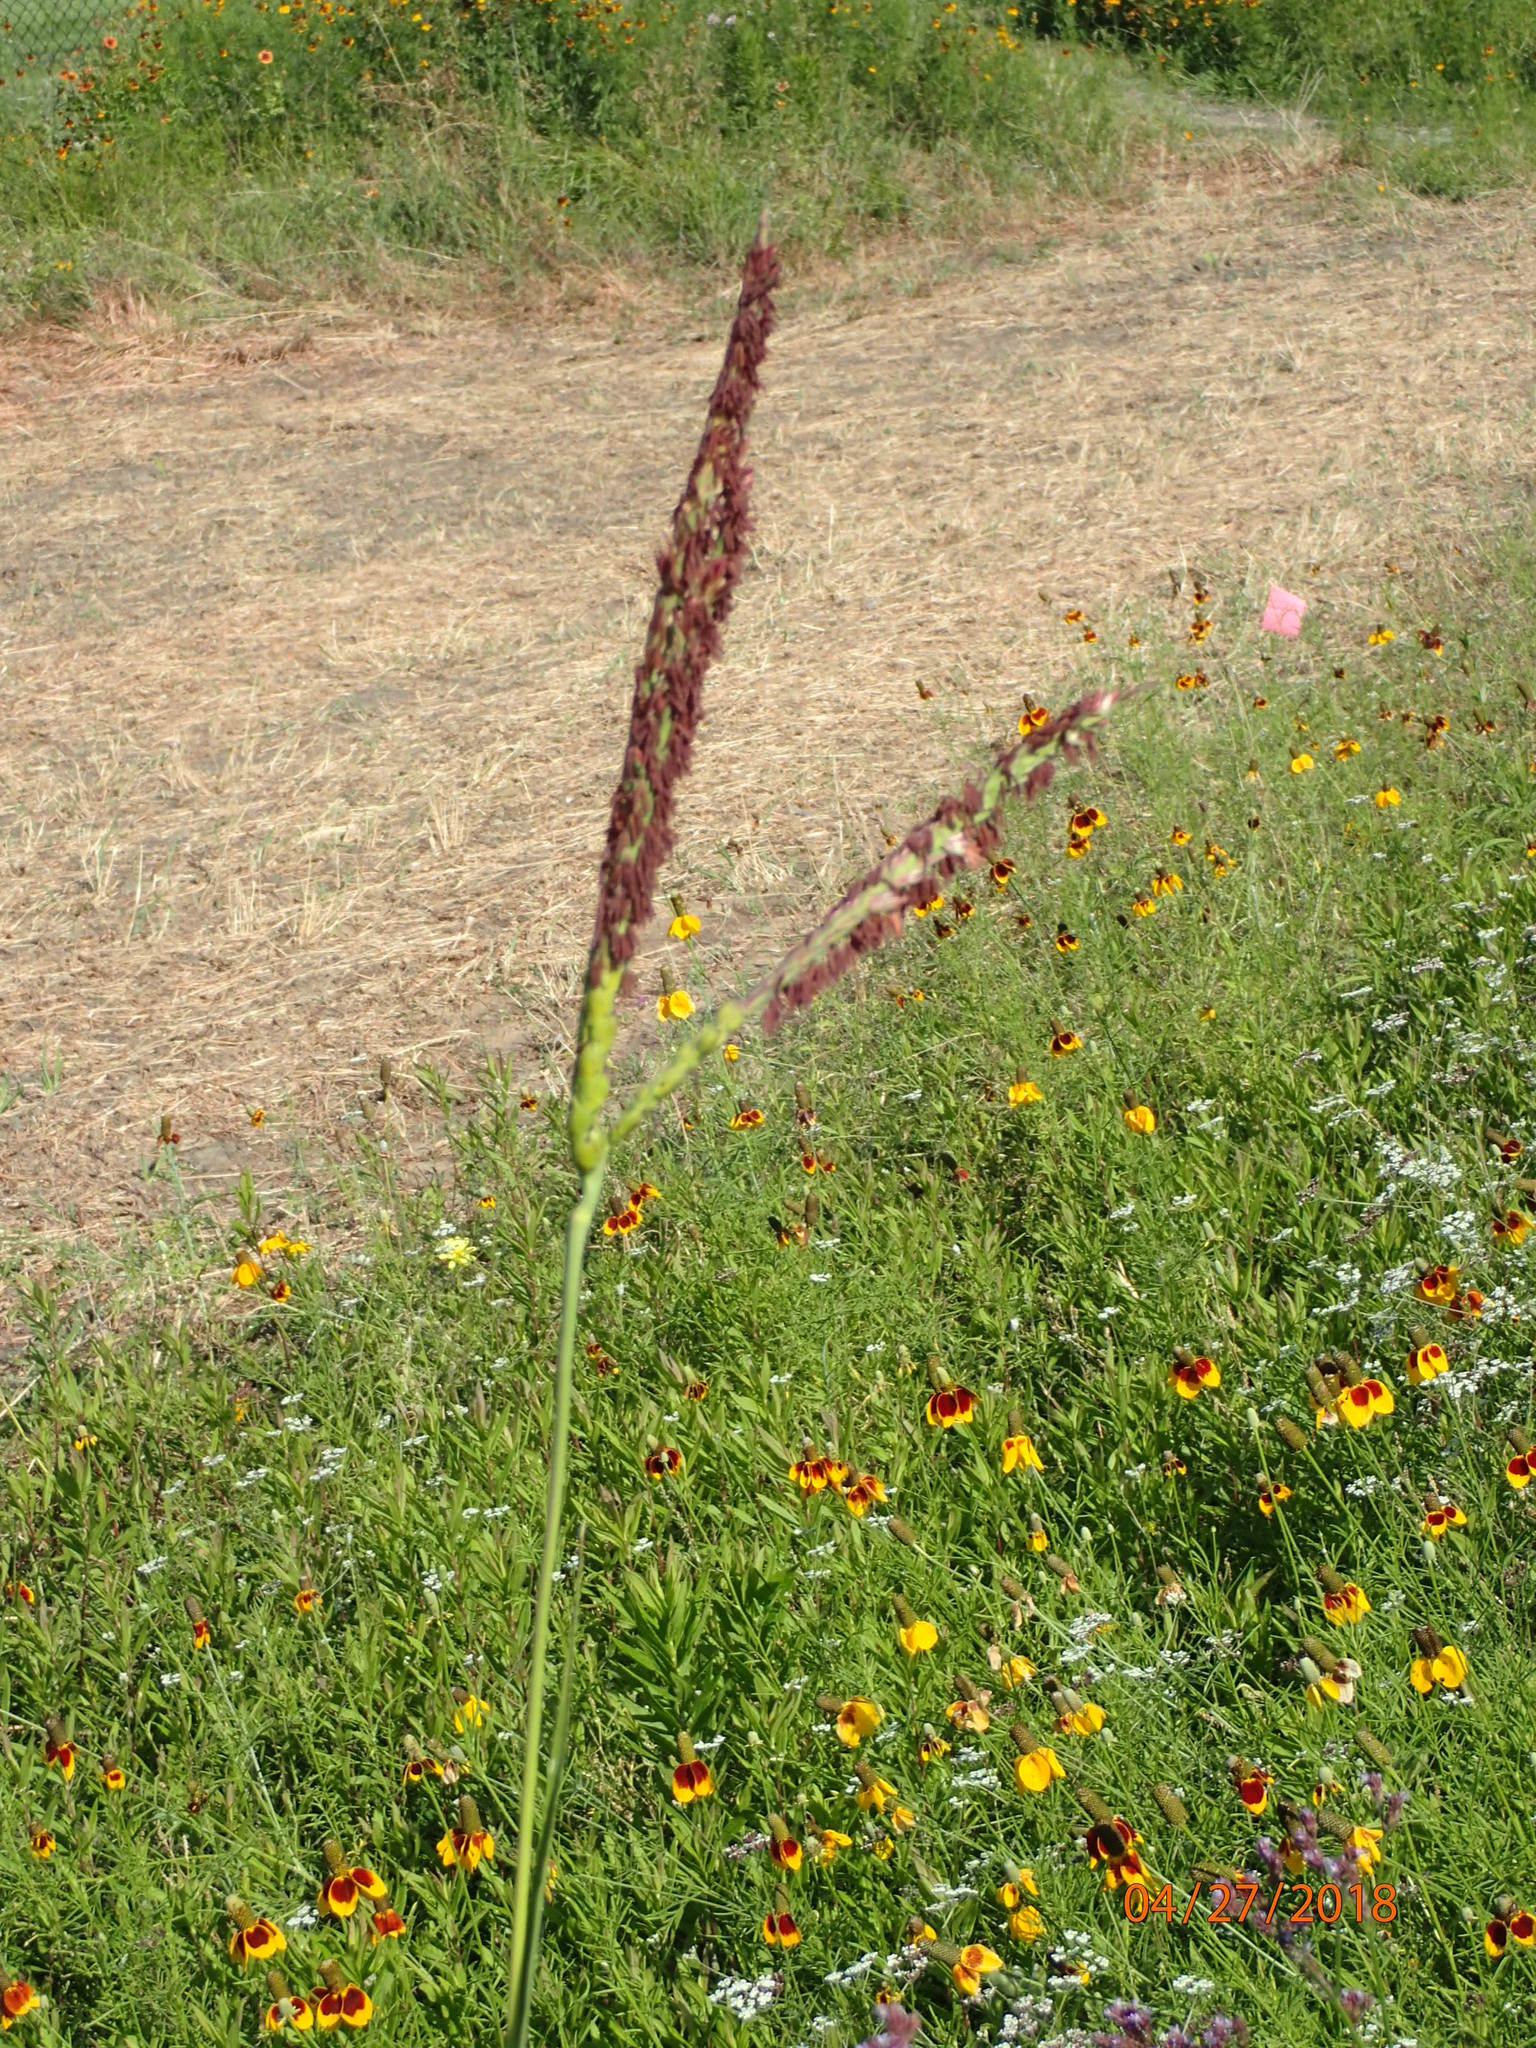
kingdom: Plantae
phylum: Tracheophyta
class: Liliopsida
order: Poales
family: Poaceae
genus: Tripsacum
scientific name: Tripsacum dactyloides
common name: Buffalo-grass
